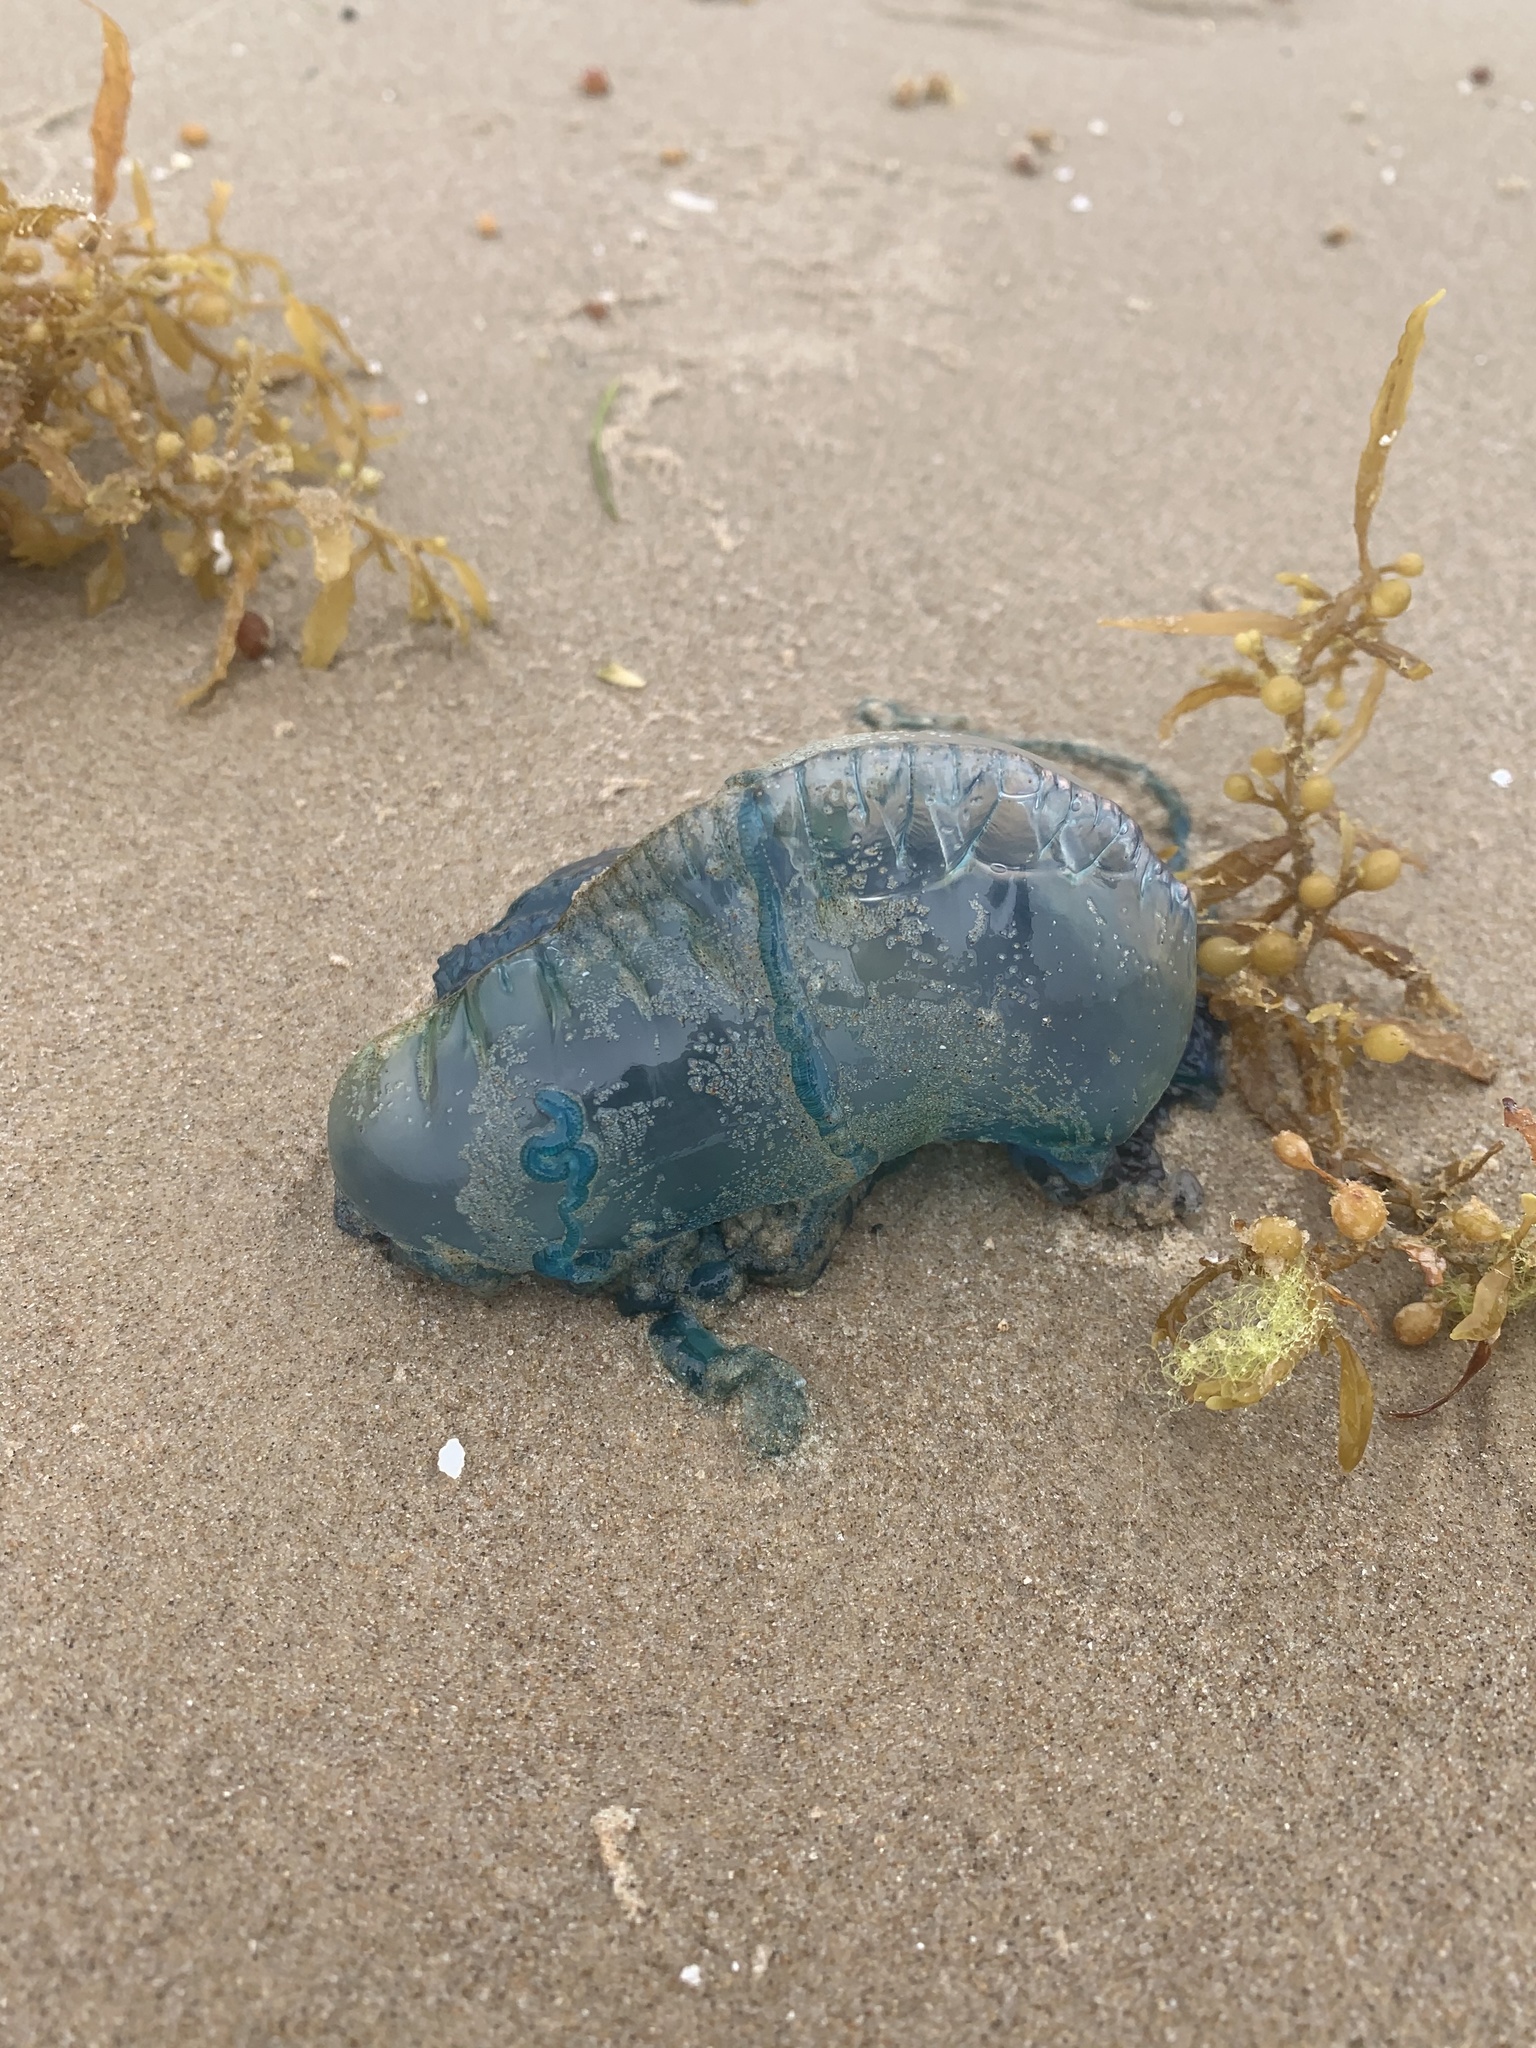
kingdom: Animalia
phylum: Cnidaria
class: Hydrozoa
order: Siphonophorae
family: Physaliidae
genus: Physalia
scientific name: Physalia physalis
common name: Portuguese man-of-war
